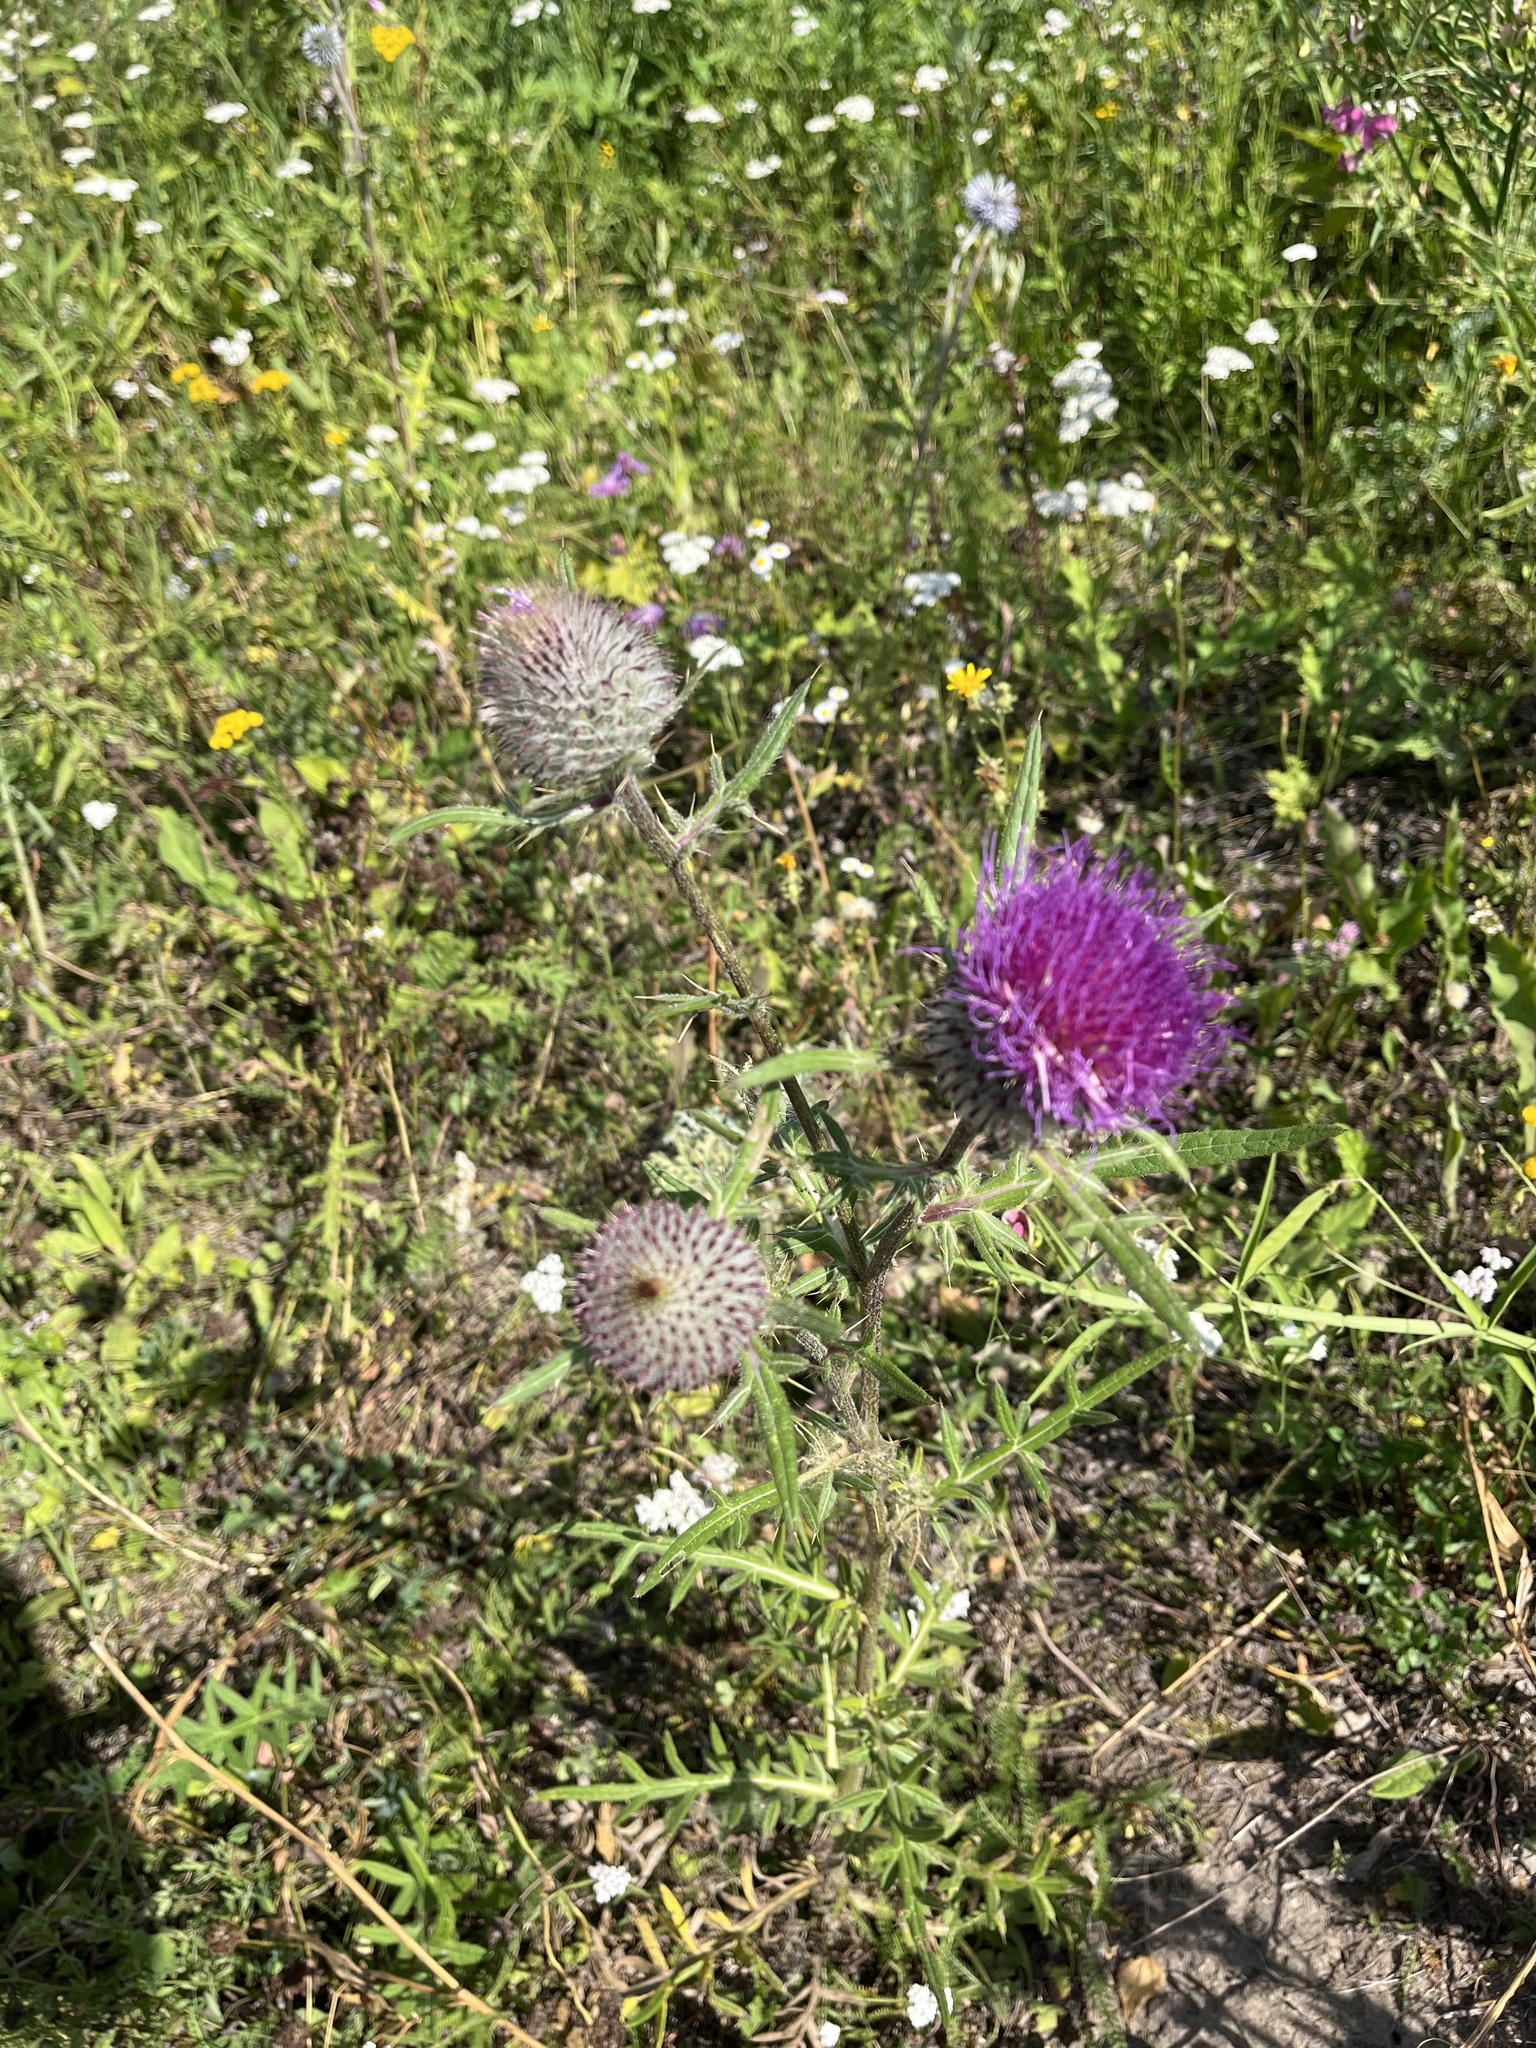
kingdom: Plantae
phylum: Tracheophyta
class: Magnoliopsida
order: Asterales
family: Asteraceae
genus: Lophiolepis
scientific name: Lophiolepis decussata
